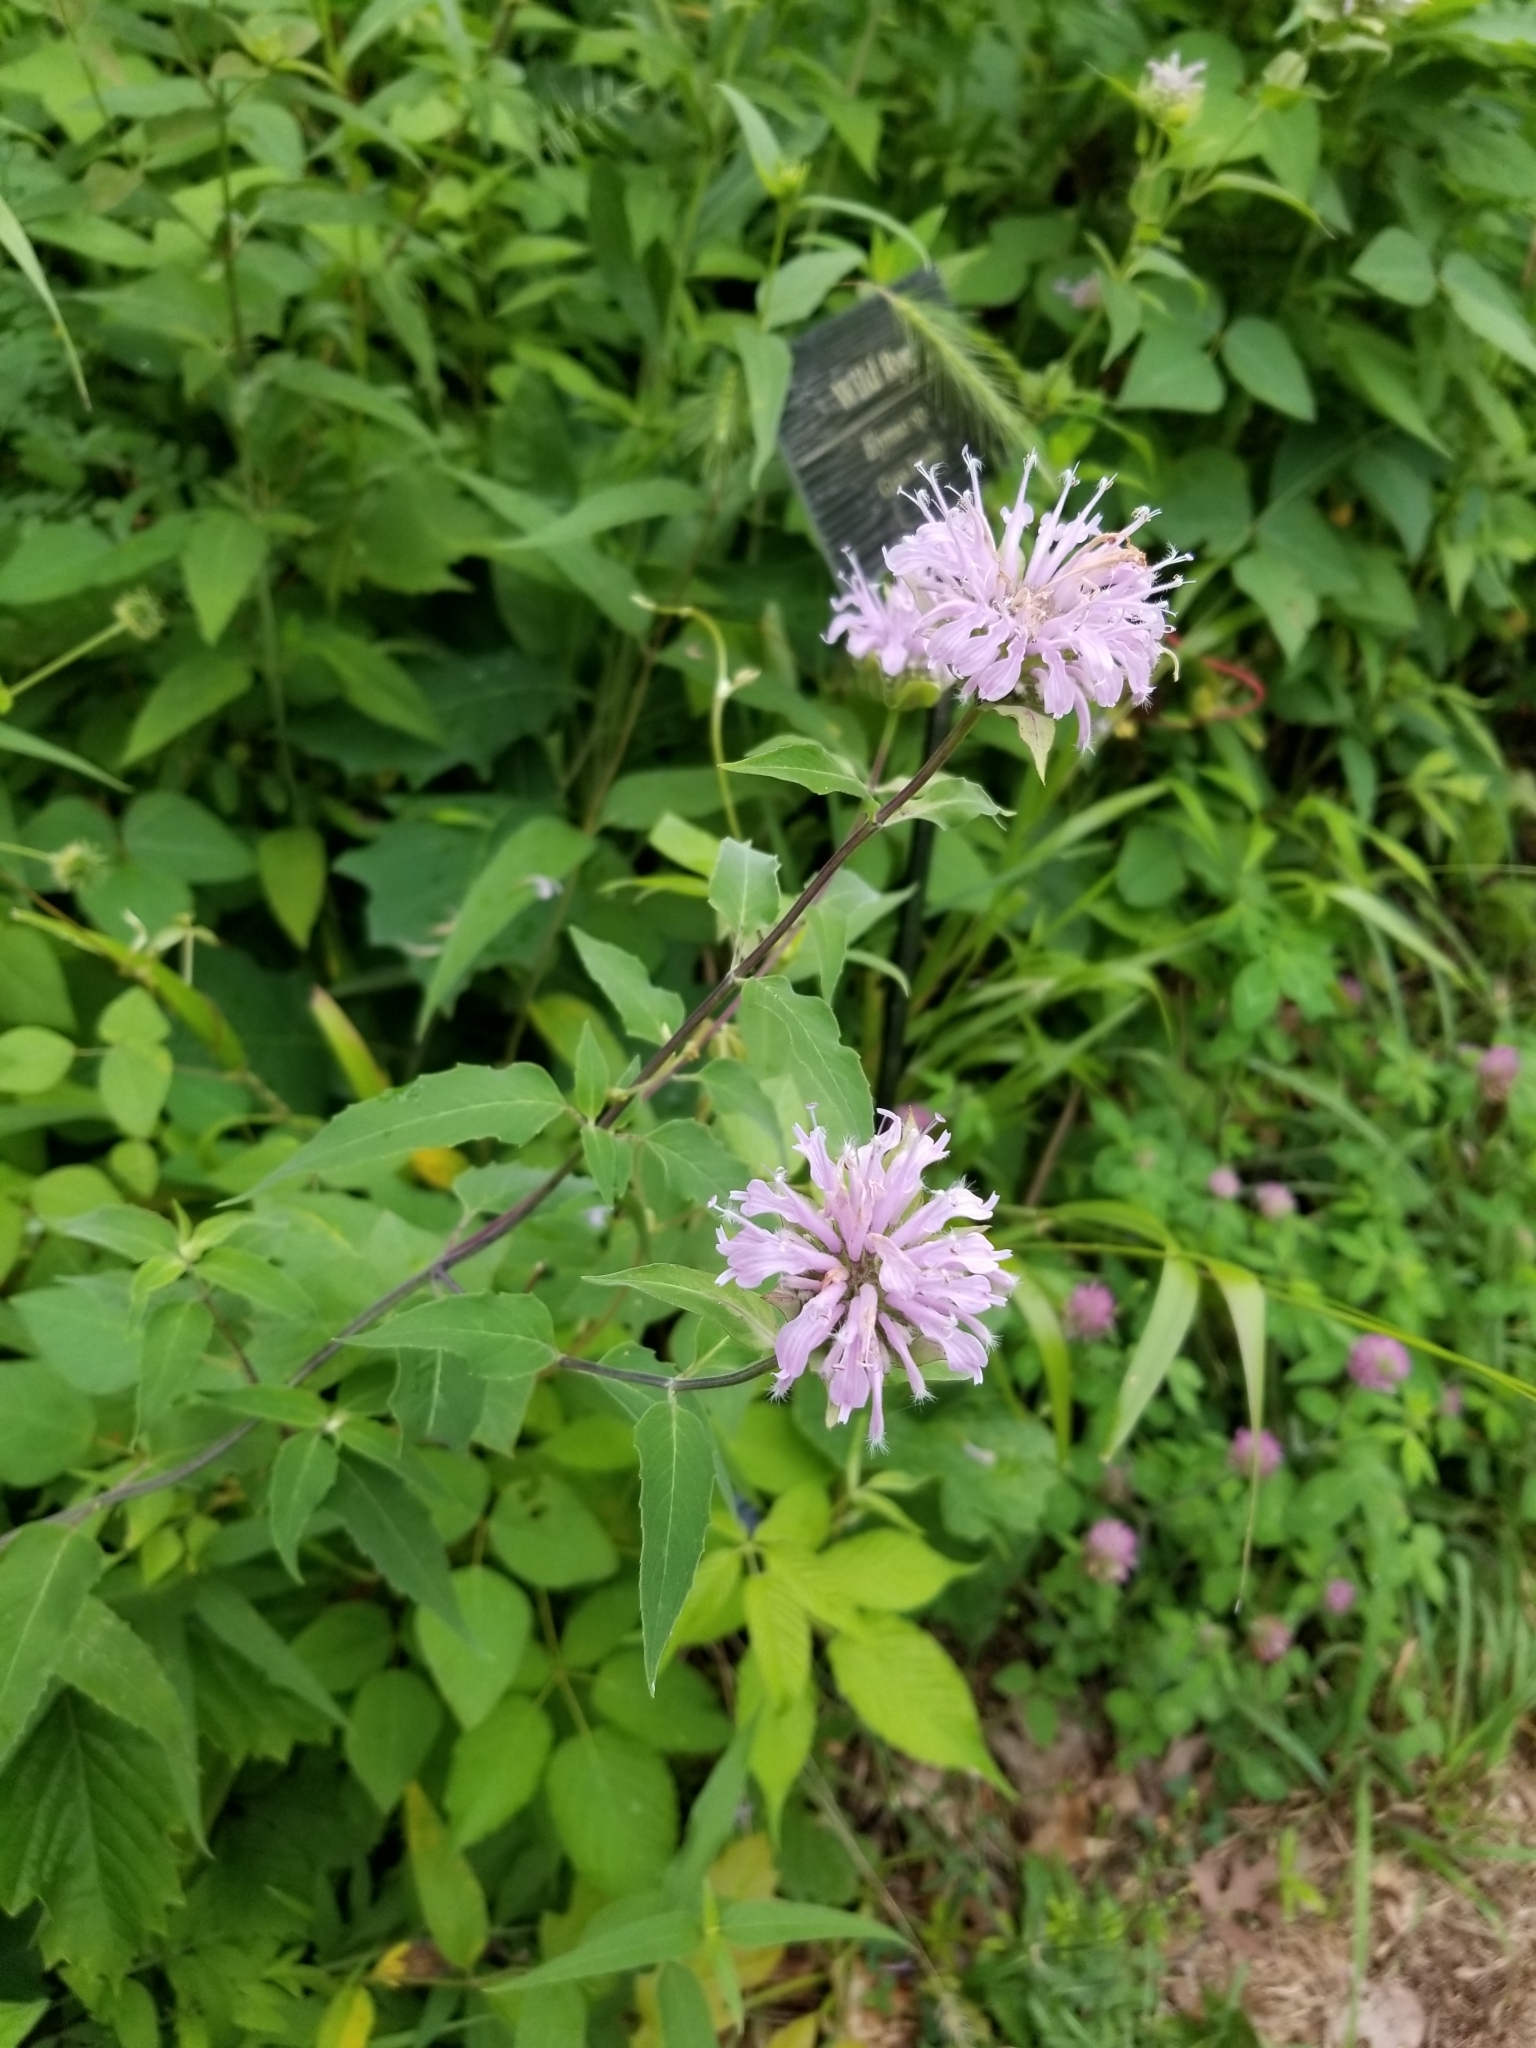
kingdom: Plantae
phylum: Tracheophyta
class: Magnoliopsida
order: Lamiales
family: Lamiaceae
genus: Monarda
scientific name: Monarda fistulosa
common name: Purple beebalm
